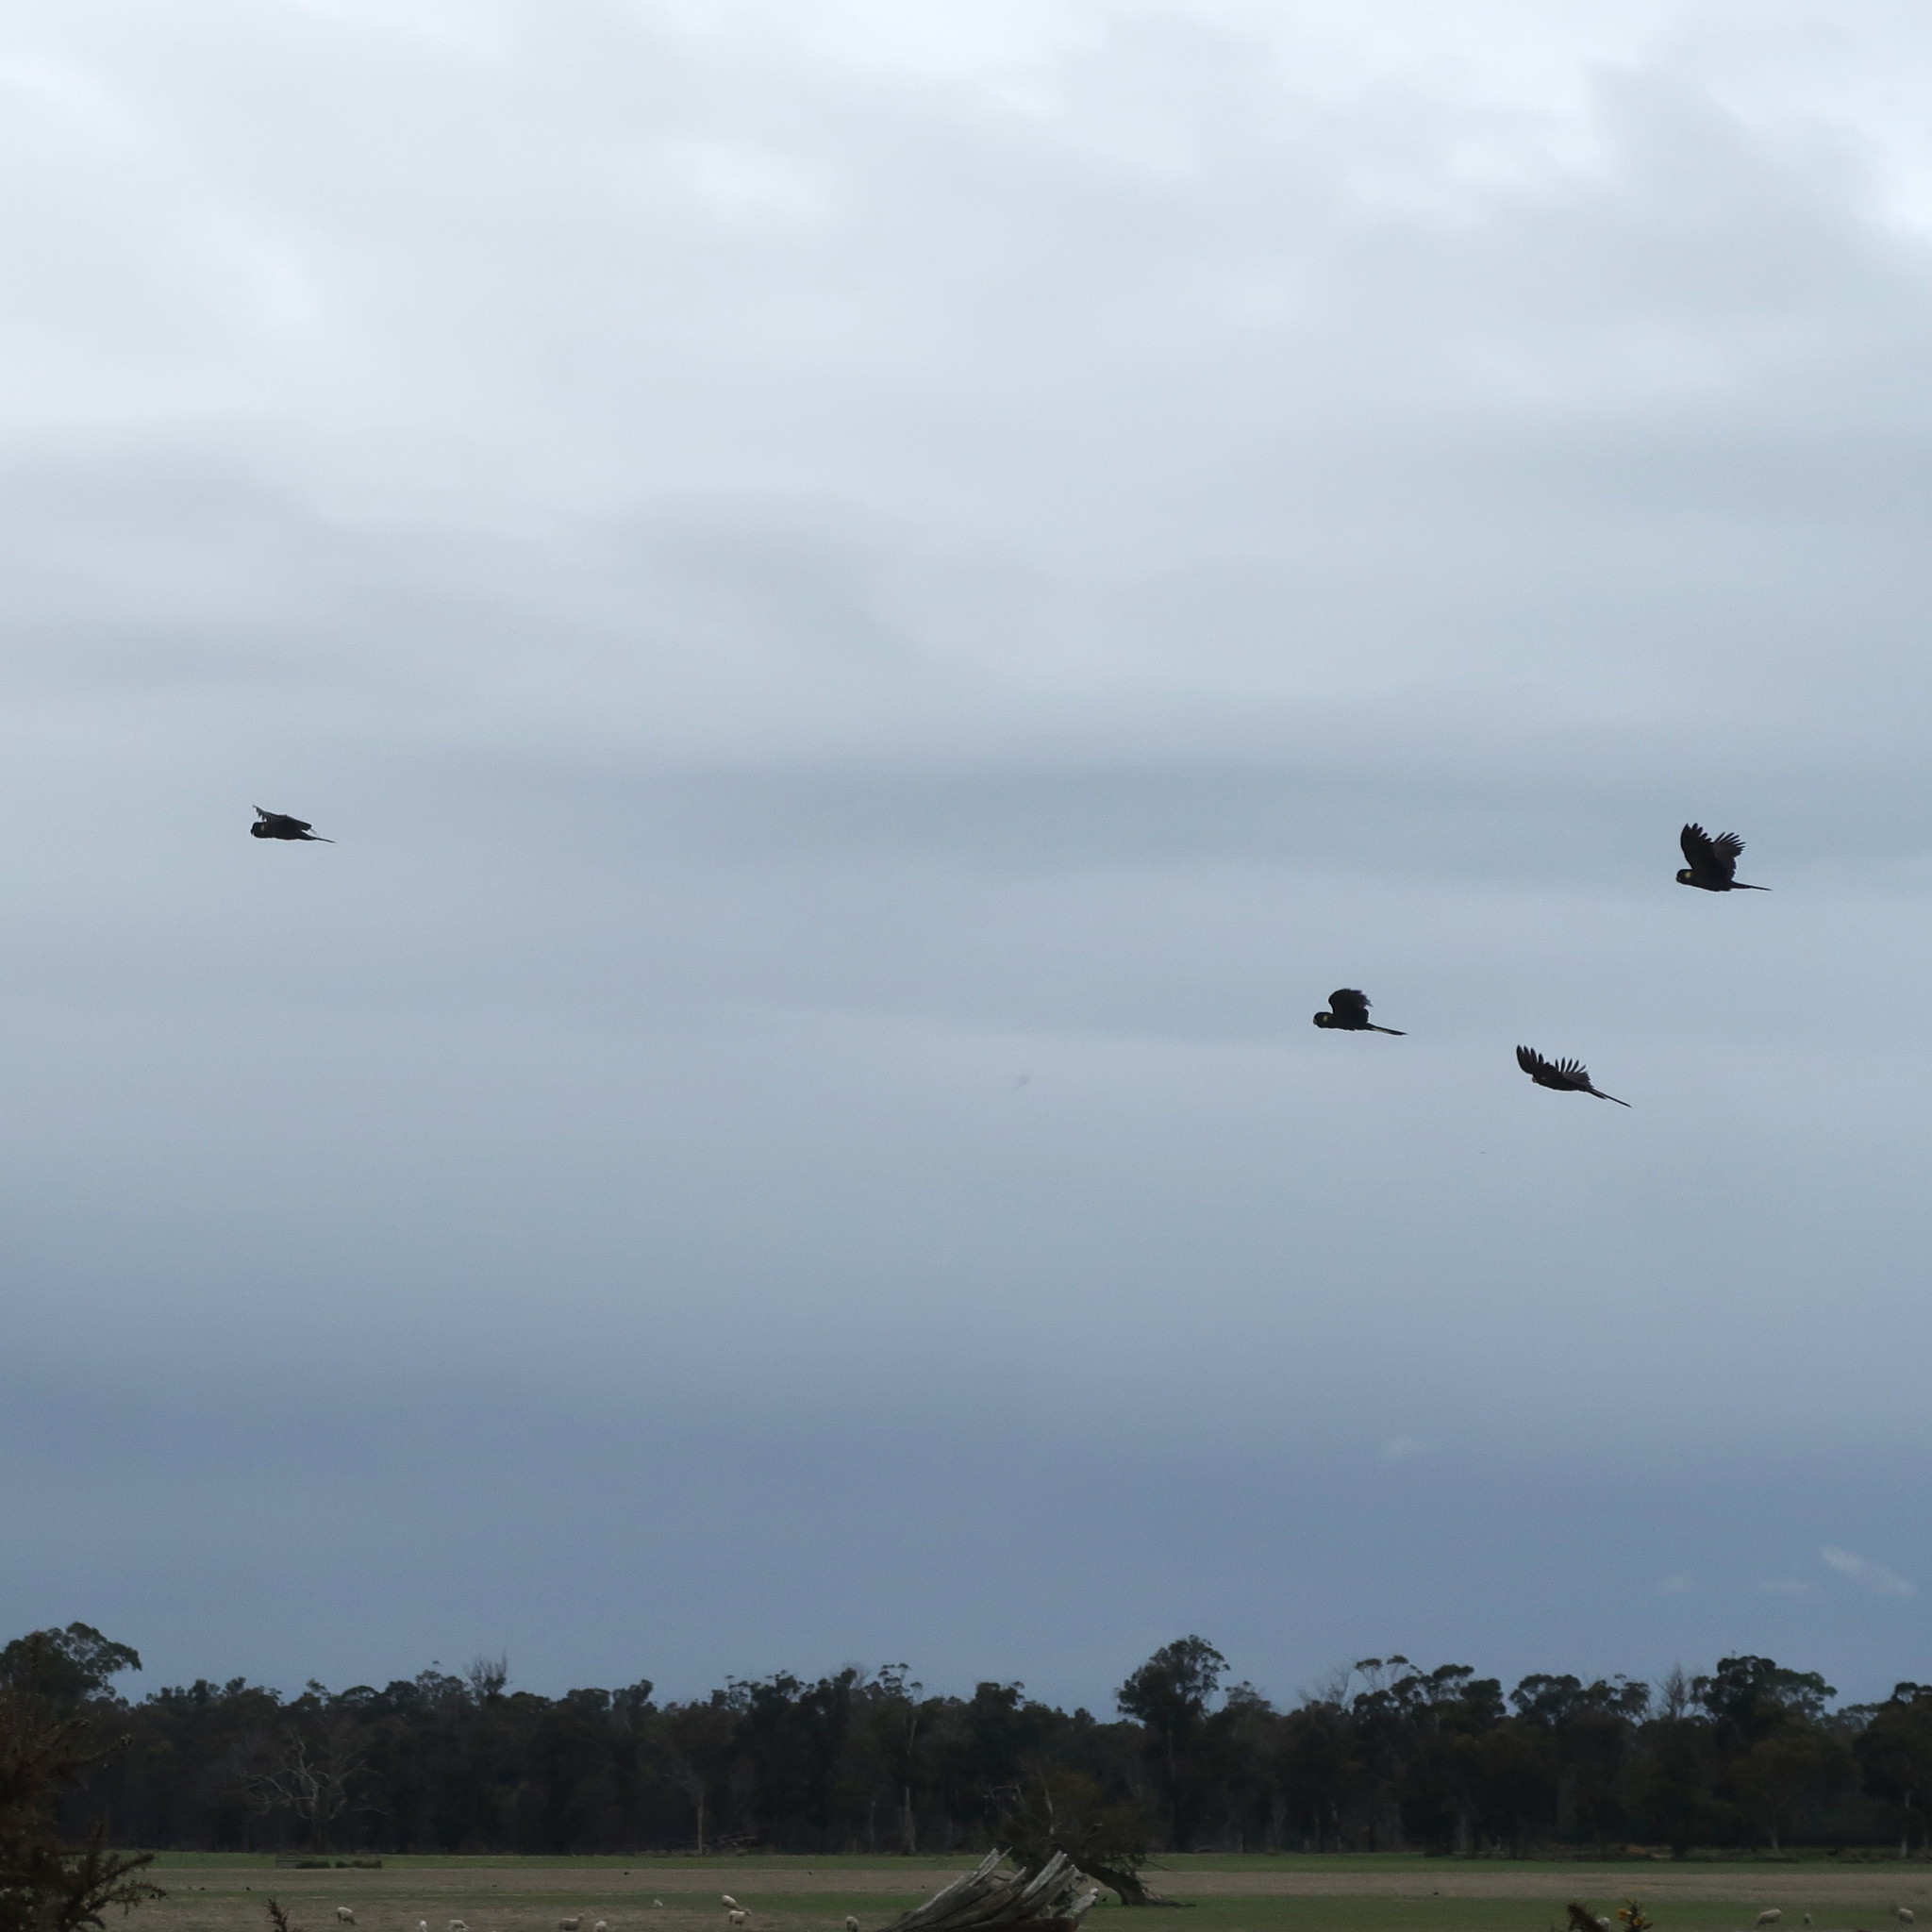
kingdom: Animalia
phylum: Chordata
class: Aves
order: Psittaciformes
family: Cacatuidae
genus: Zanda
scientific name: Zanda funerea
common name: Yellow-tailed black-cockatoo
